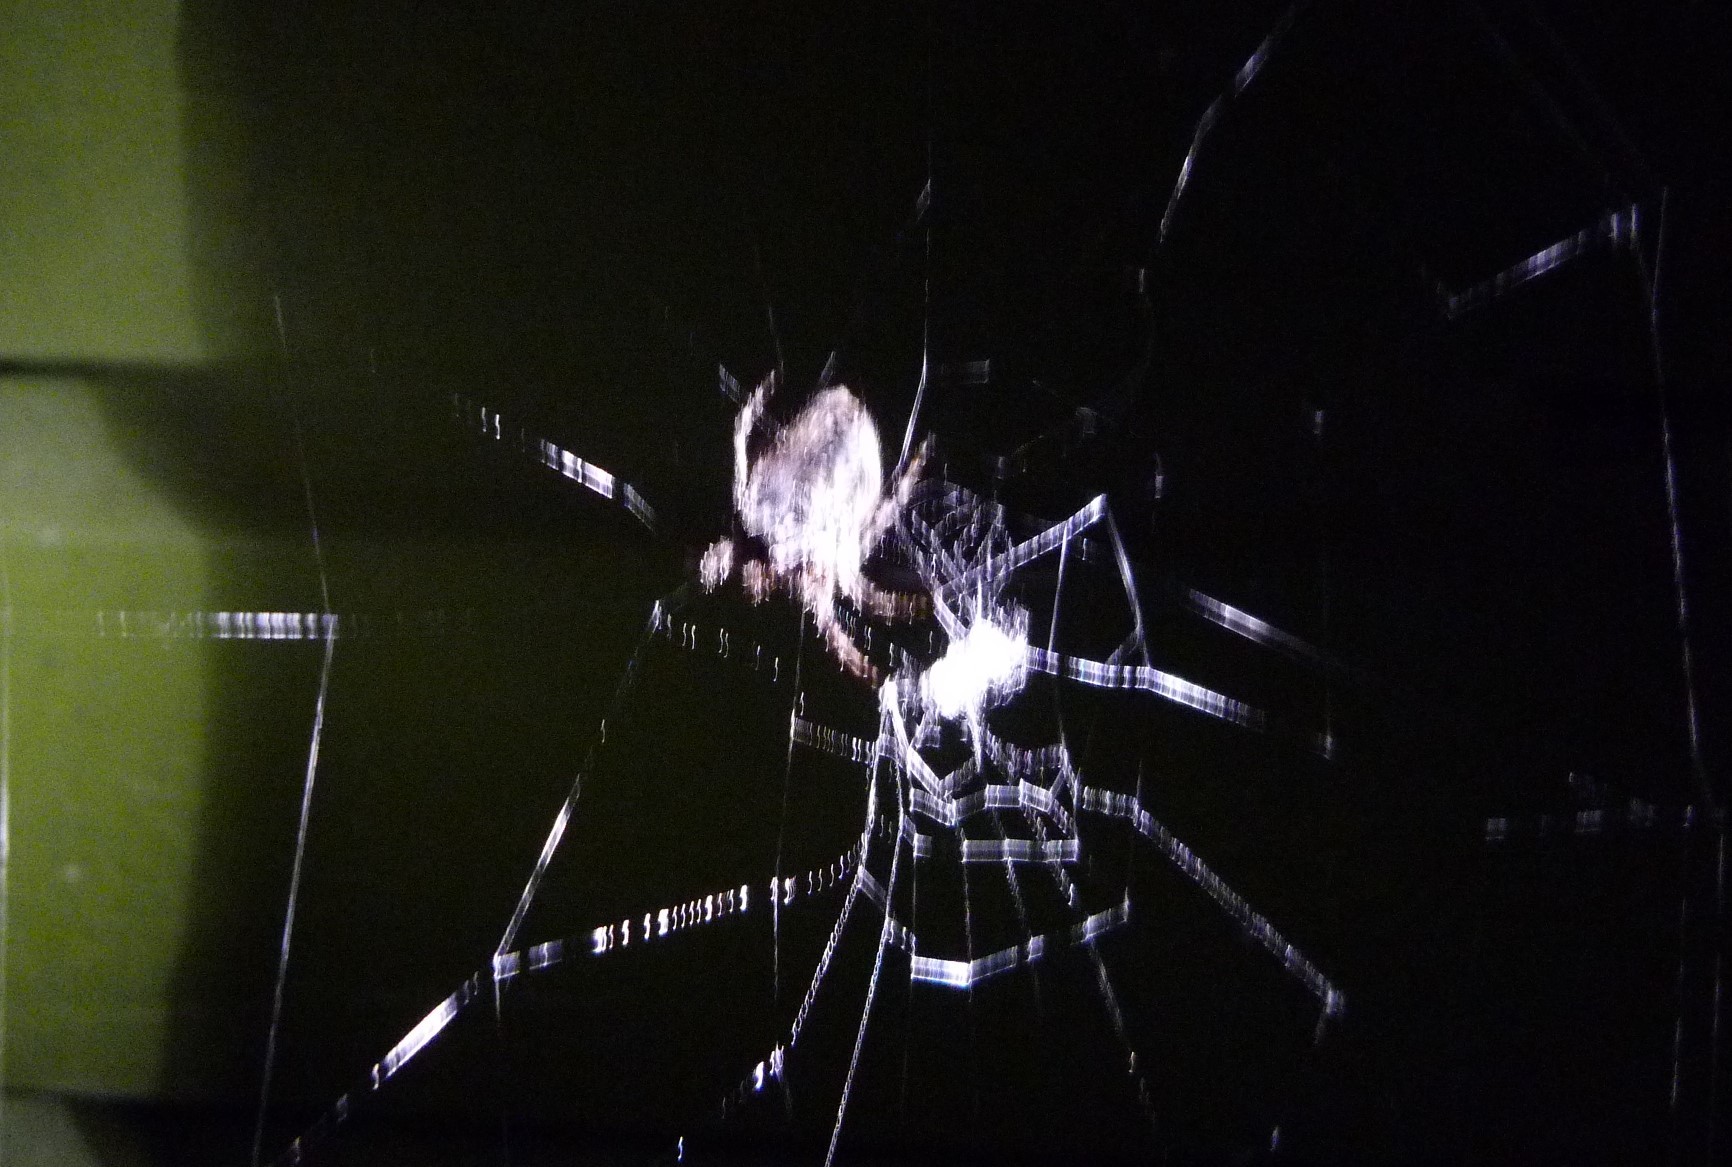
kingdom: Animalia
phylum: Arthropoda
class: Arachnida
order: Araneae
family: Araneidae
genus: Eriophora
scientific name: Eriophora pustulosa
